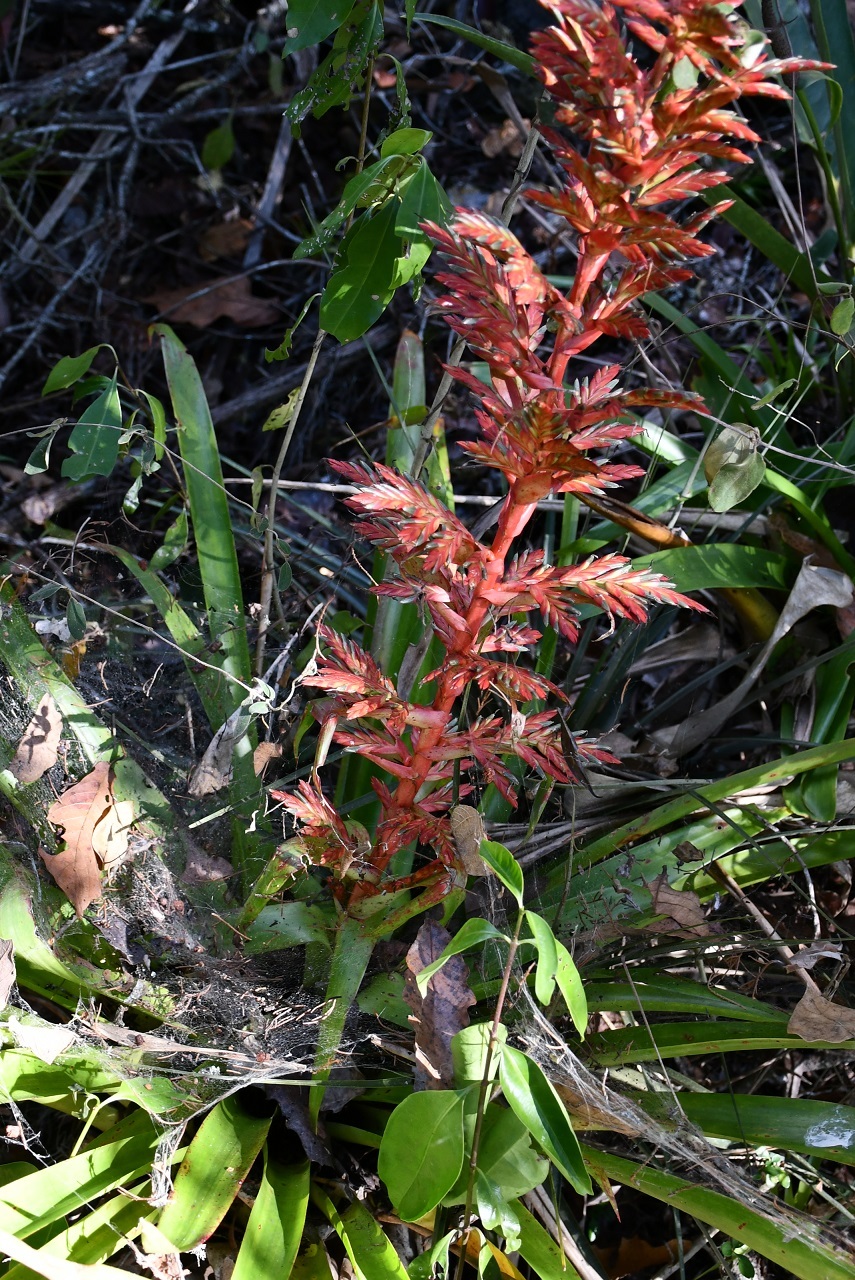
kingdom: Plantae
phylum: Tracheophyta
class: Liliopsida
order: Poales
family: Bromeliaceae
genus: Tillandsia
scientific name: Tillandsia guatemalensis
